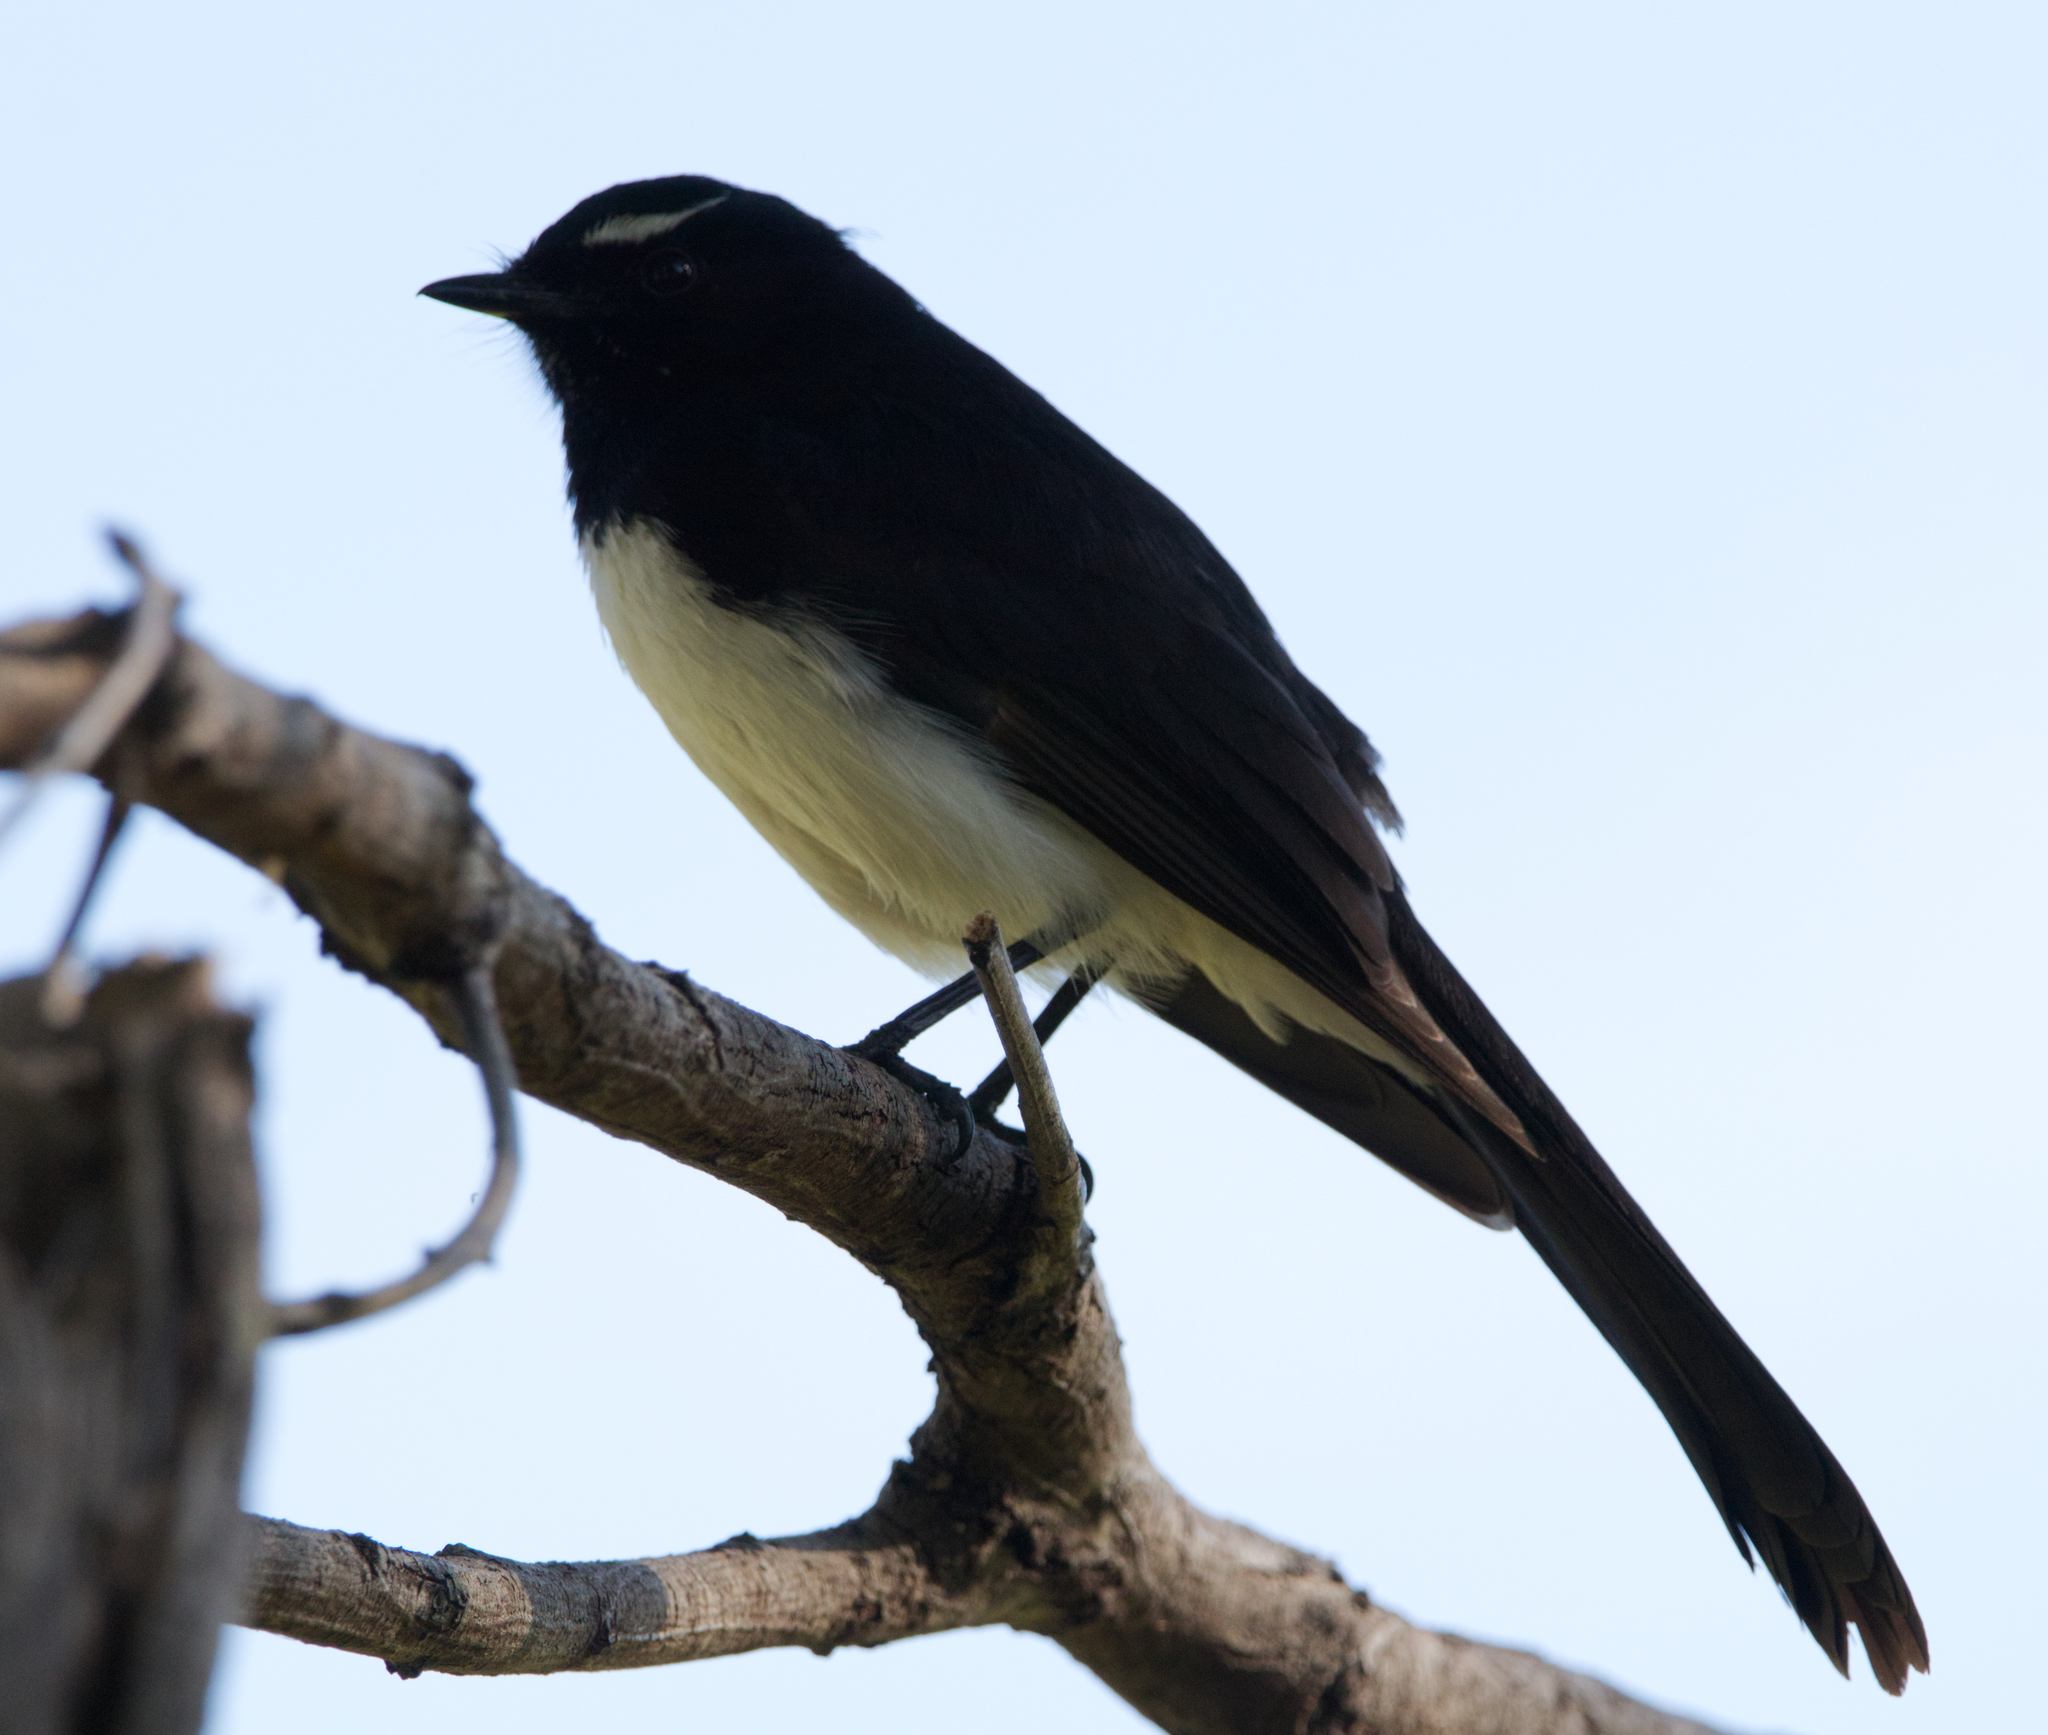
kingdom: Animalia
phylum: Chordata
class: Aves
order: Passeriformes
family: Rhipiduridae
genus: Rhipidura
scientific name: Rhipidura leucophrys
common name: Willie wagtail
